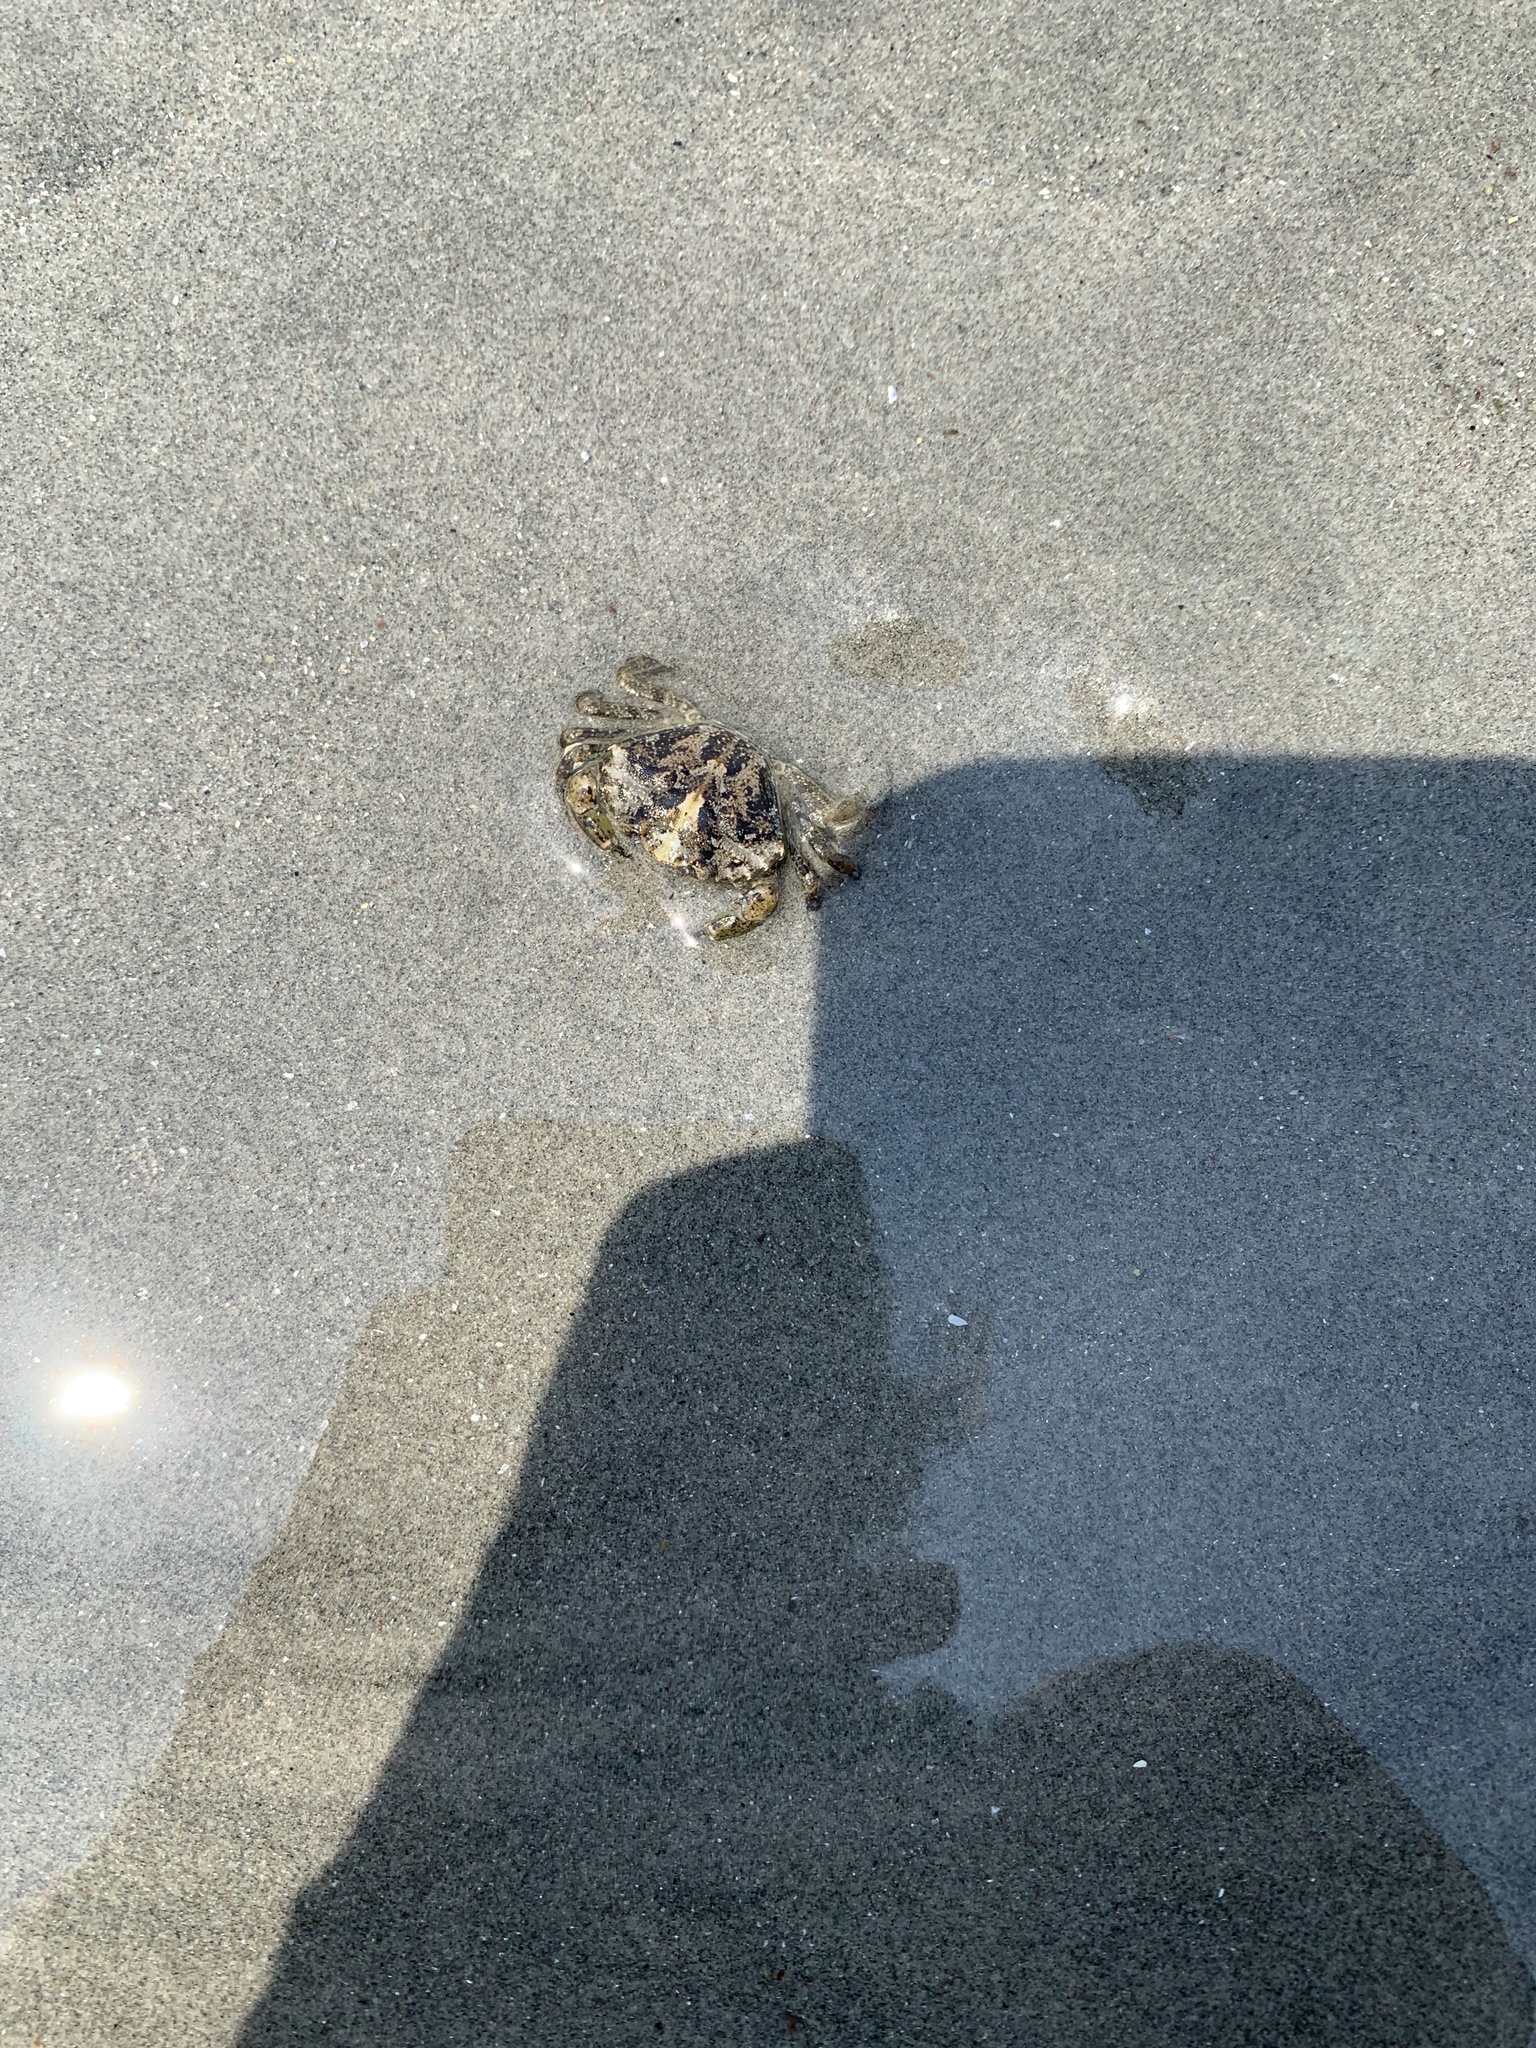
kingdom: Animalia
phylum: Arthropoda
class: Malacostraca
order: Decapoda
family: Carcinidae
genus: Carcinus
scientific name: Carcinus maenas
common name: European green crab
